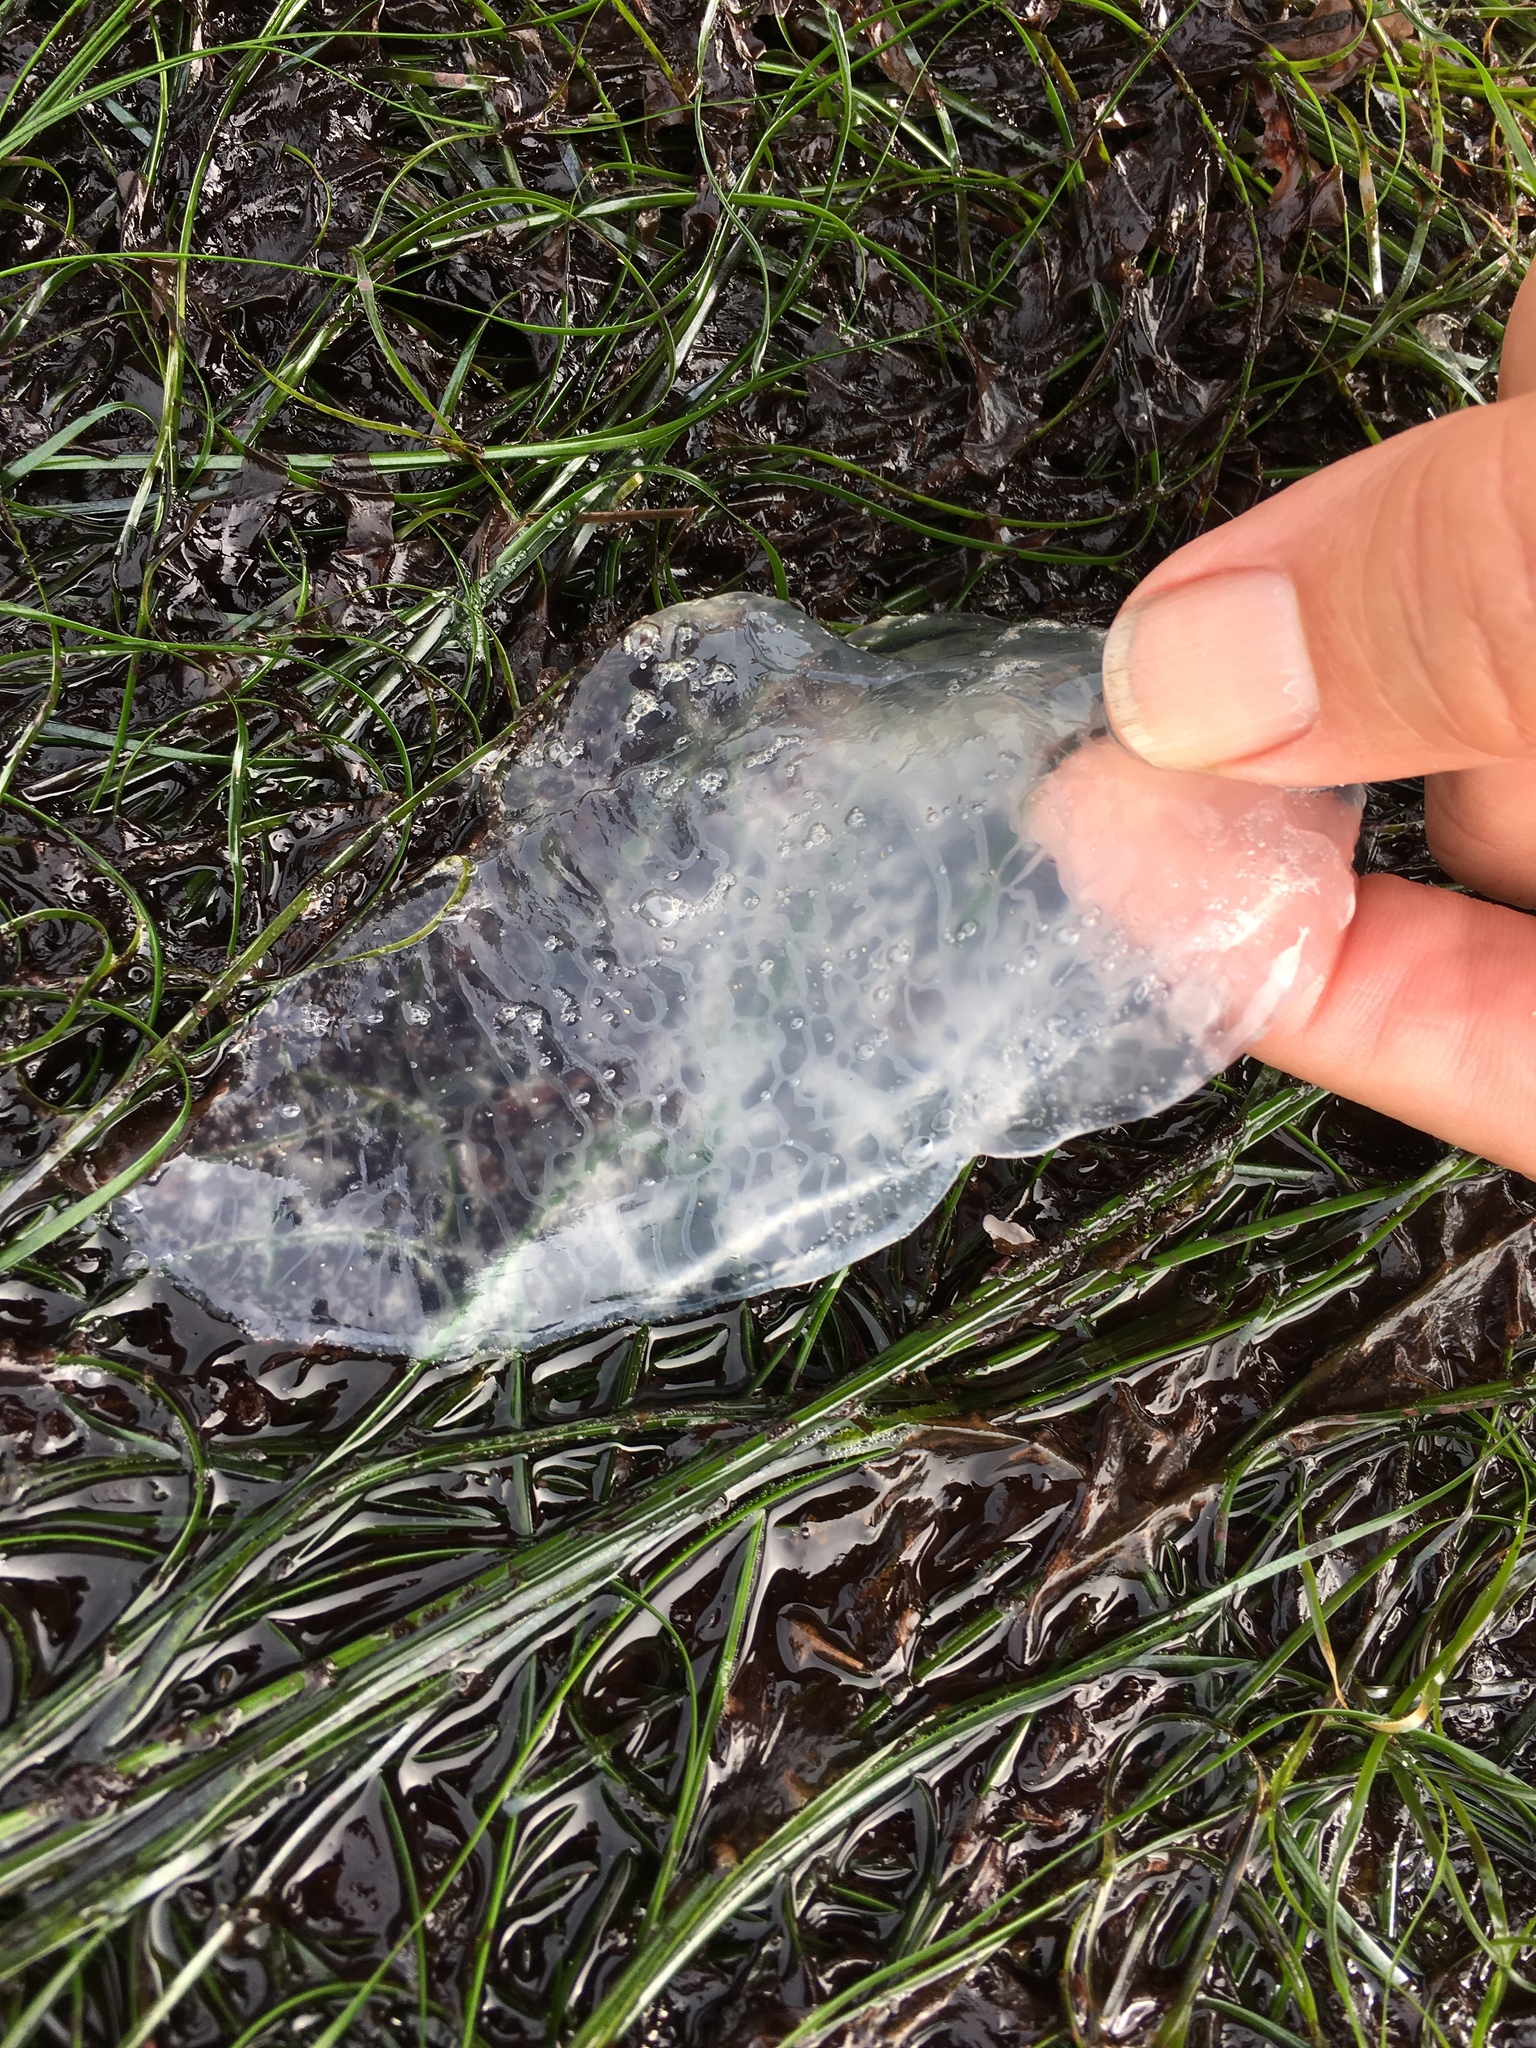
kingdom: Animalia
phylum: Cnidaria
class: Scyphozoa
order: Semaeostomeae
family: Ulmaridae
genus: Aurelia
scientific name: Aurelia labiata
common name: Pacific moon jelly
